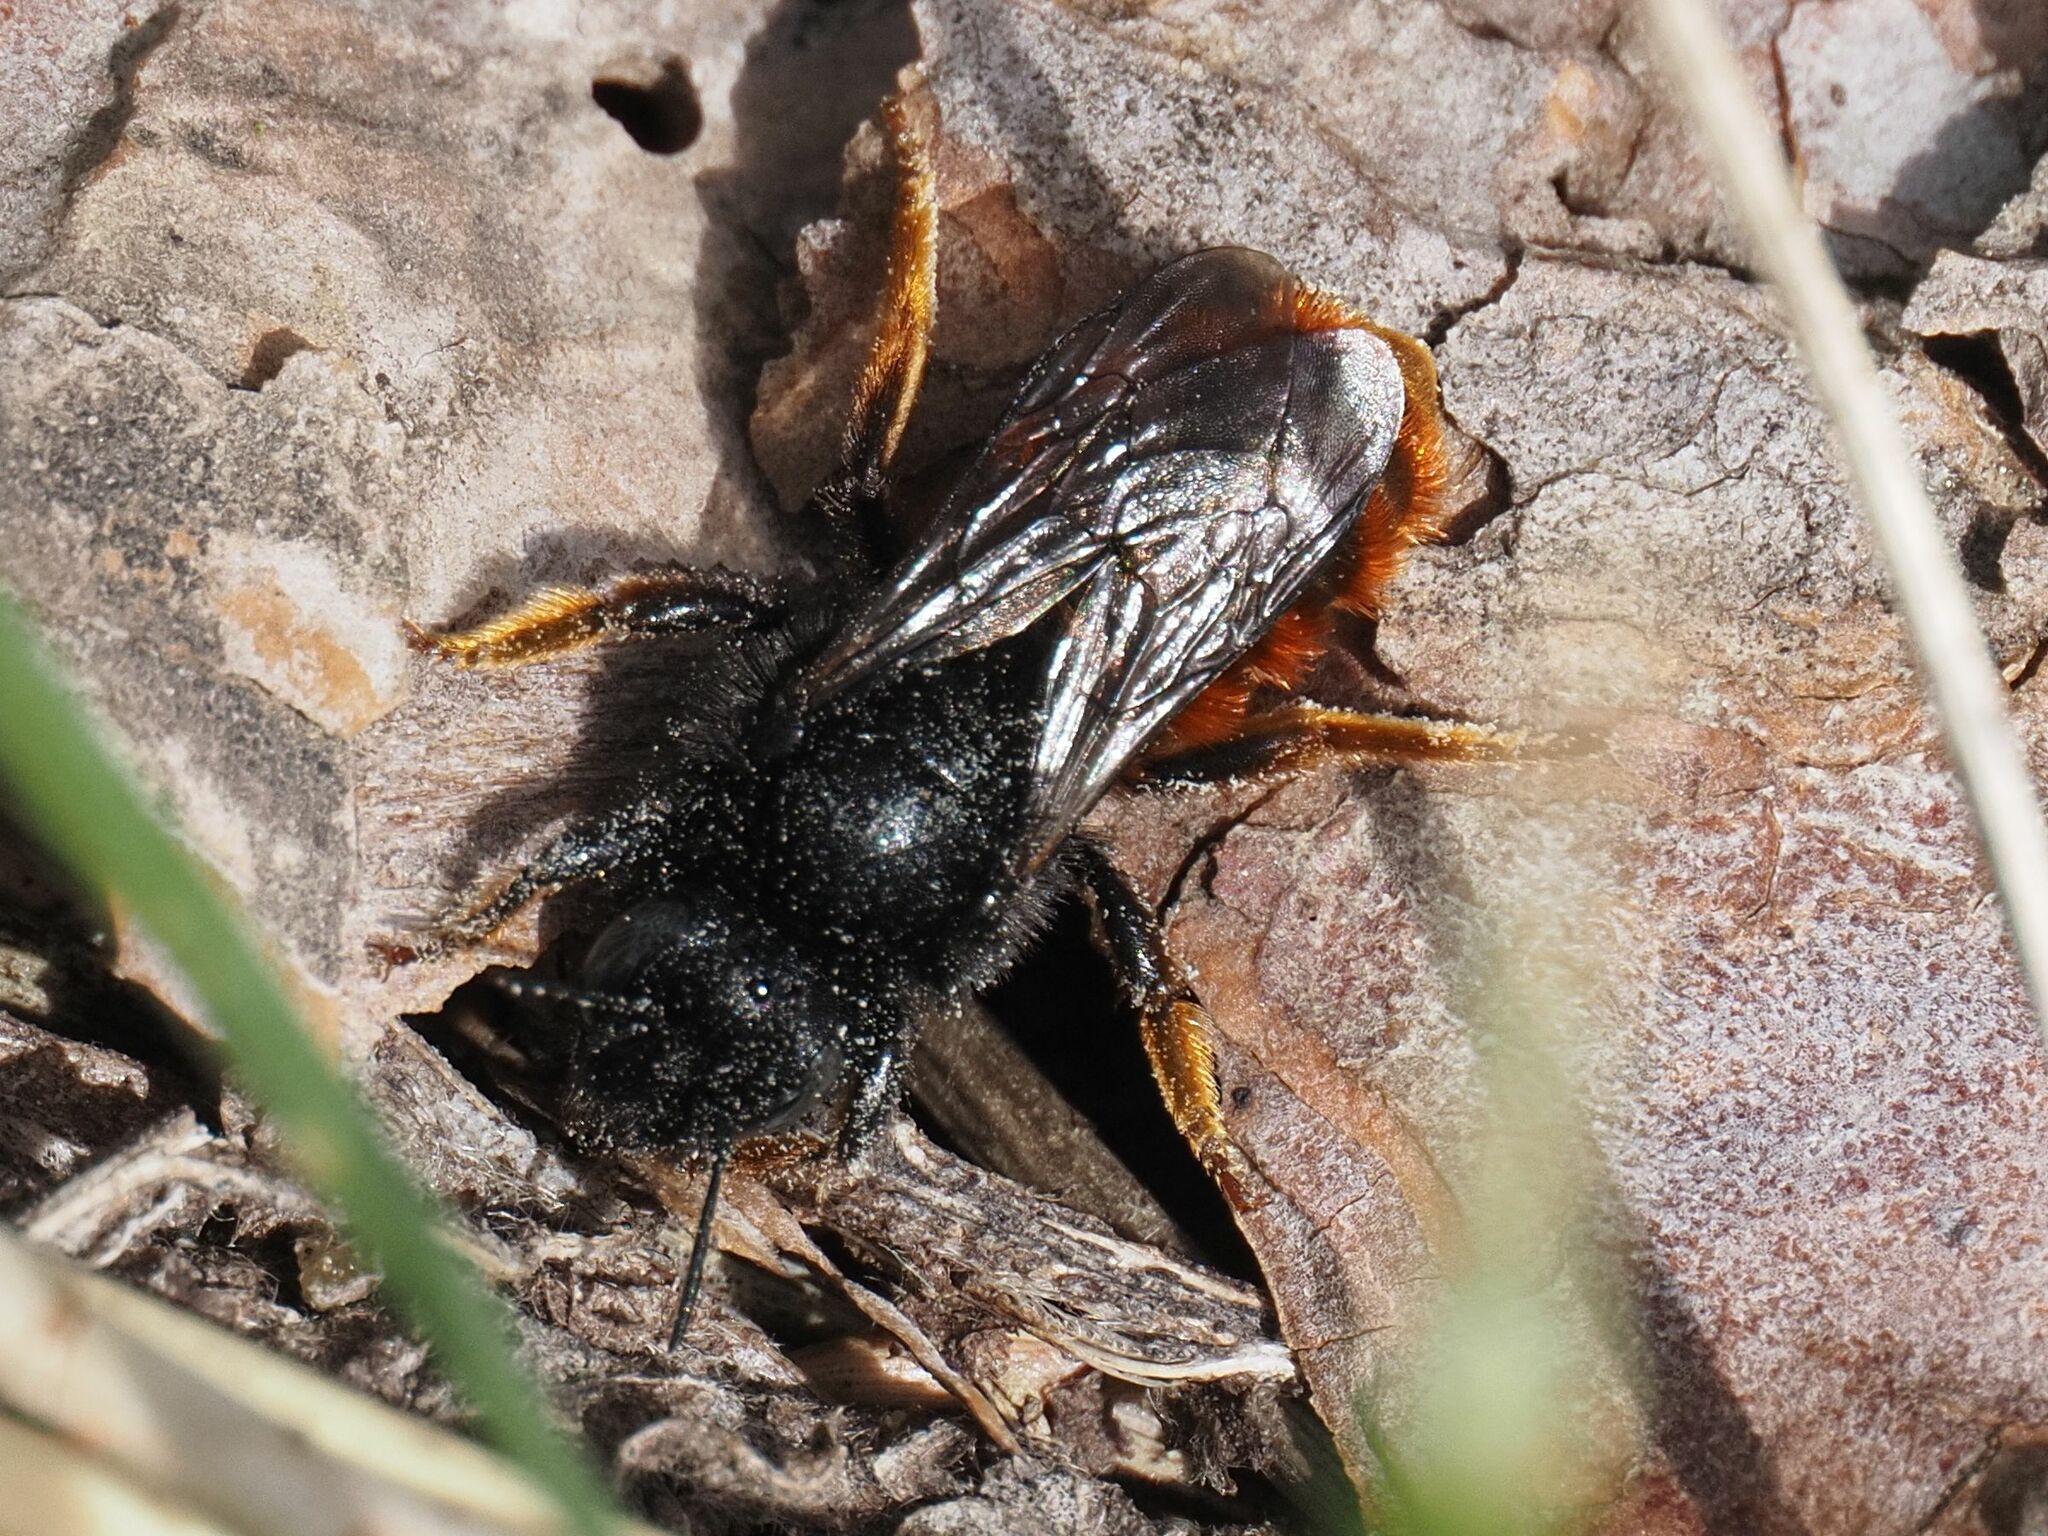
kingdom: Animalia
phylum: Arthropoda
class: Insecta
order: Hymenoptera
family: Megachilidae
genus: Osmia
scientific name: Osmia bicolor
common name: Red-tailed mason bee
